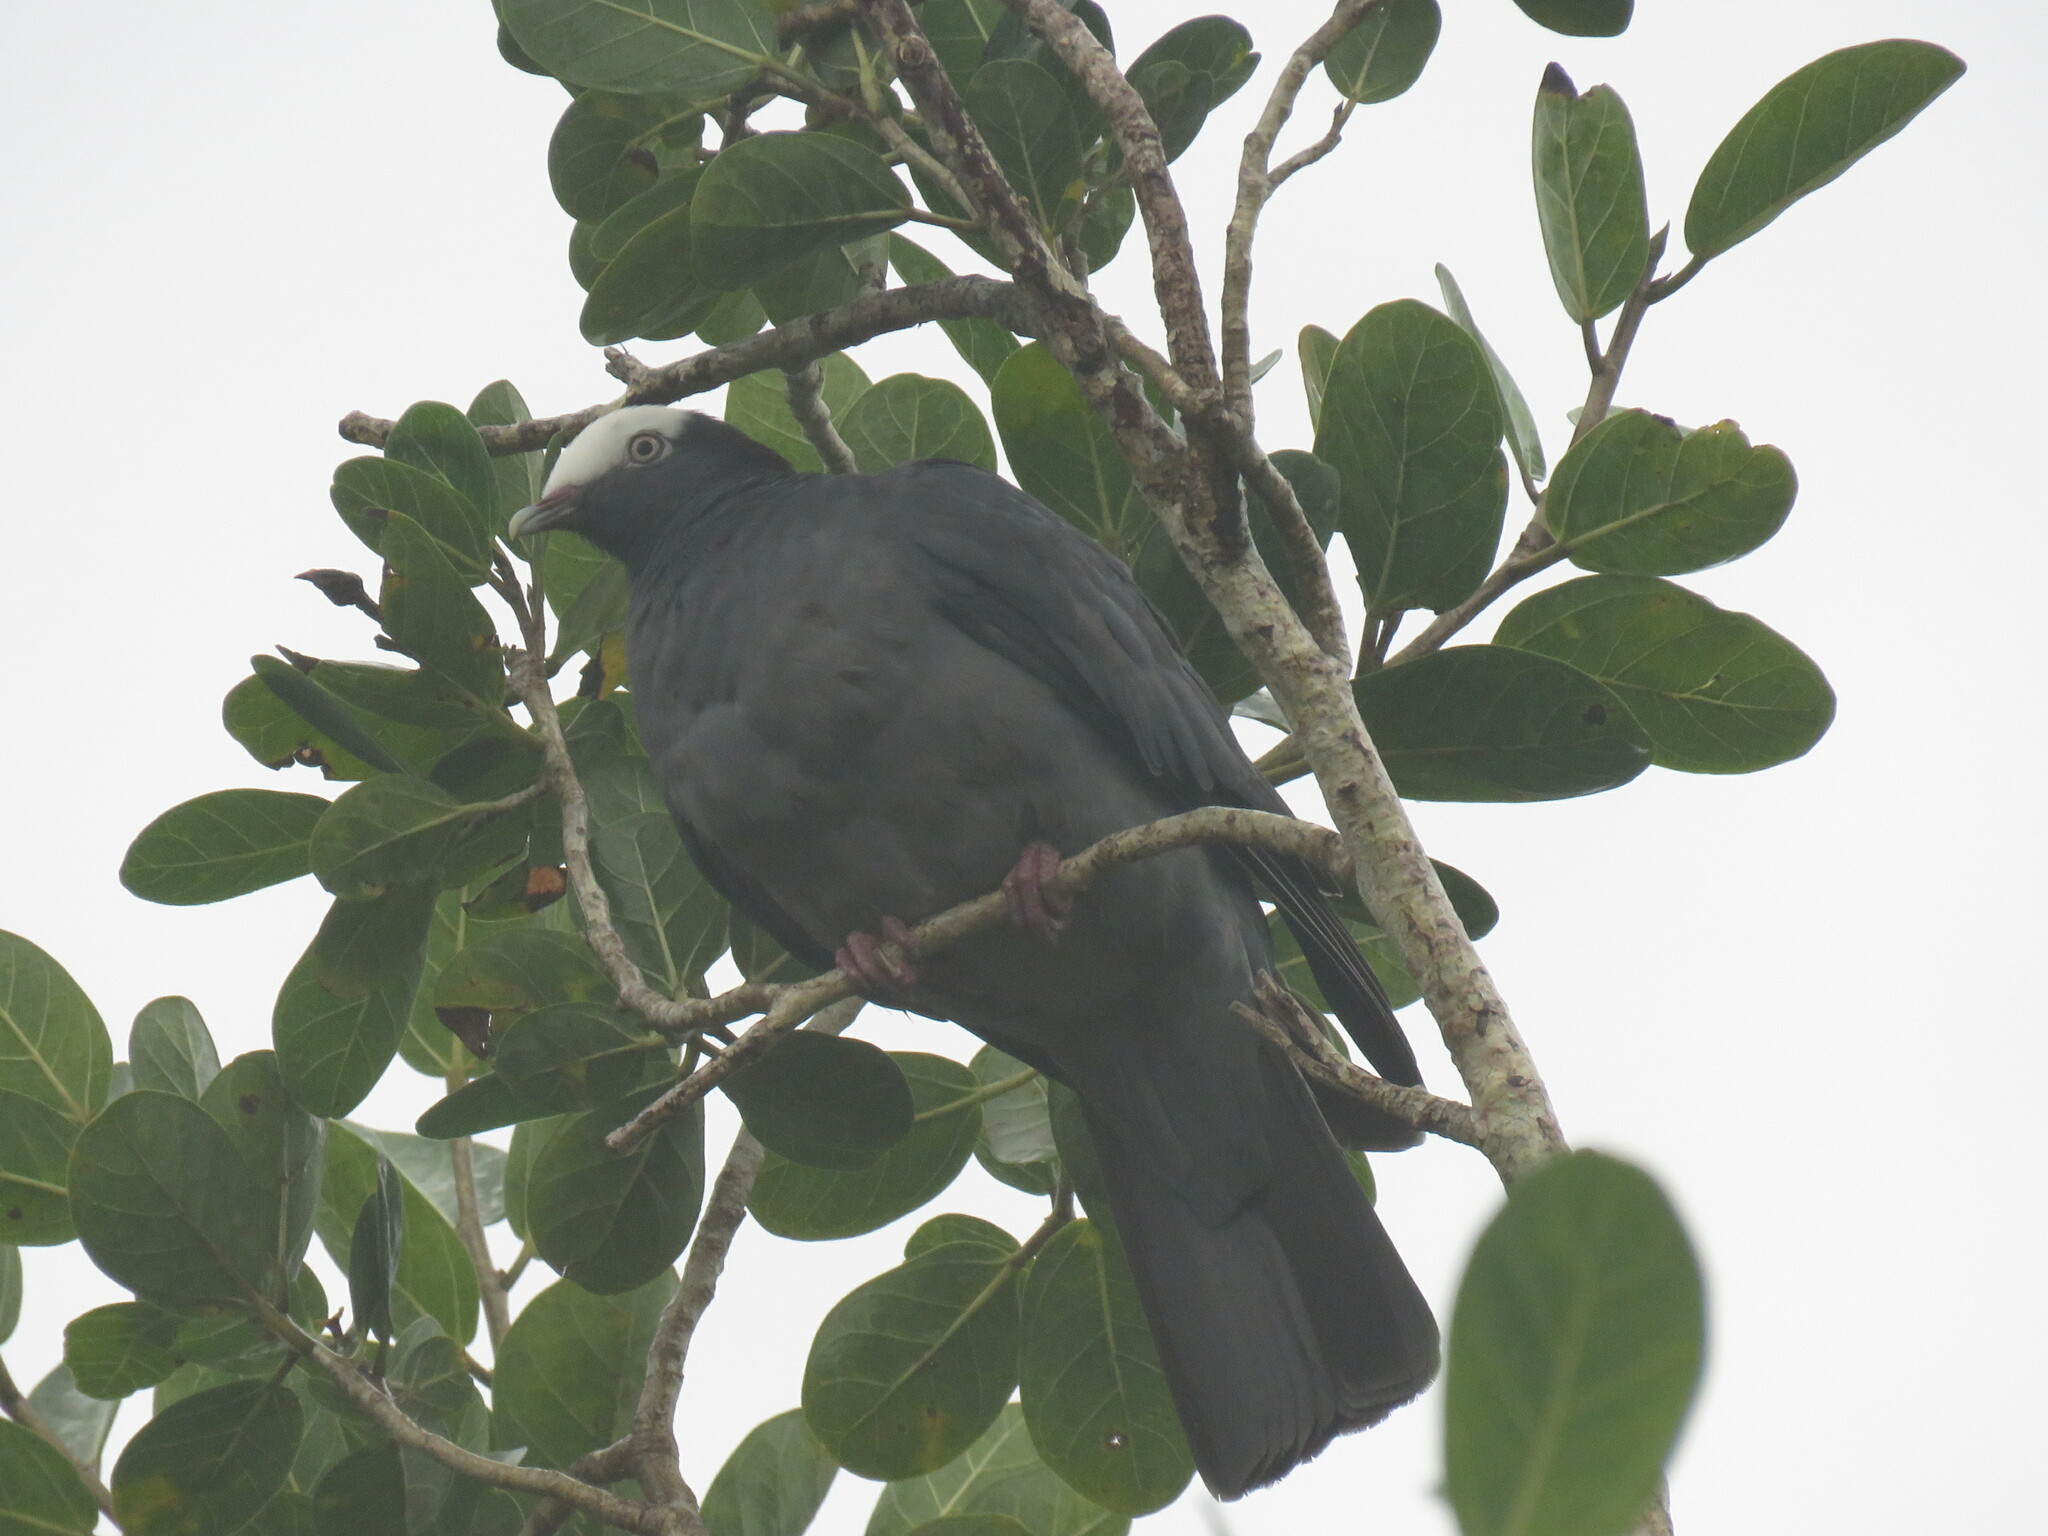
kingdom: Animalia
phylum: Chordata
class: Aves
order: Columbiformes
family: Columbidae
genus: Patagioenas
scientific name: Patagioenas leucocephala
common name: White-crowned pigeon
